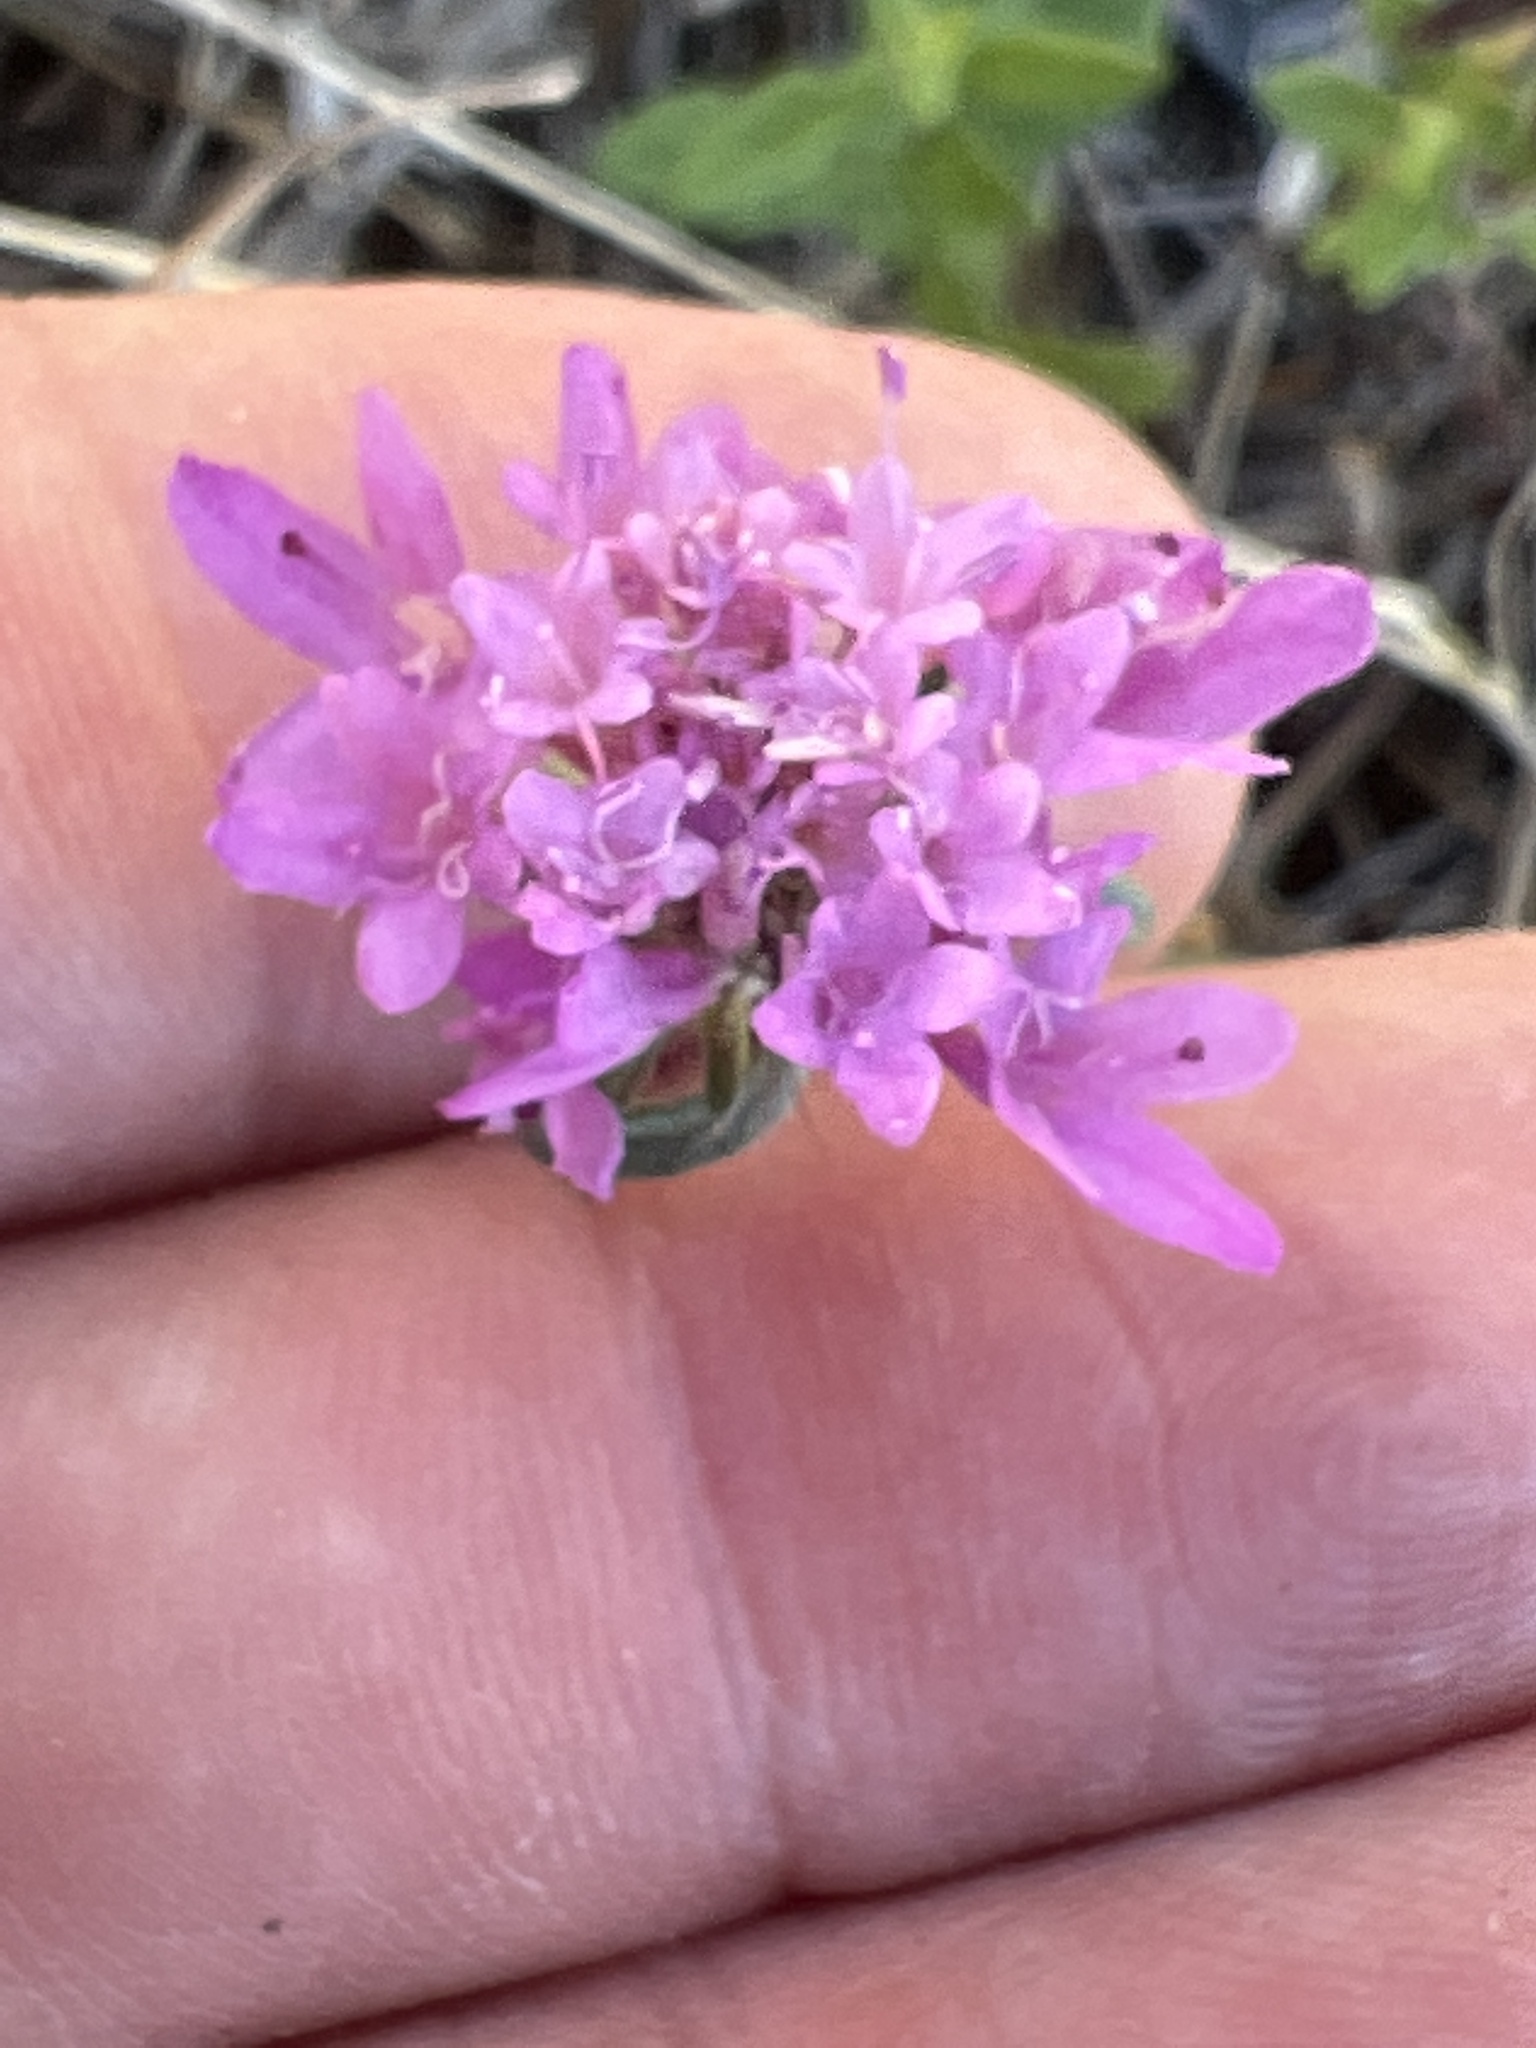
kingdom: Plantae
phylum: Tracheophyta
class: Magnoliopsida
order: Dipsacales
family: Caprifoliaceae
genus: Sixalix
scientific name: Sixalix atropurpurea
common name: Sweet scabious
